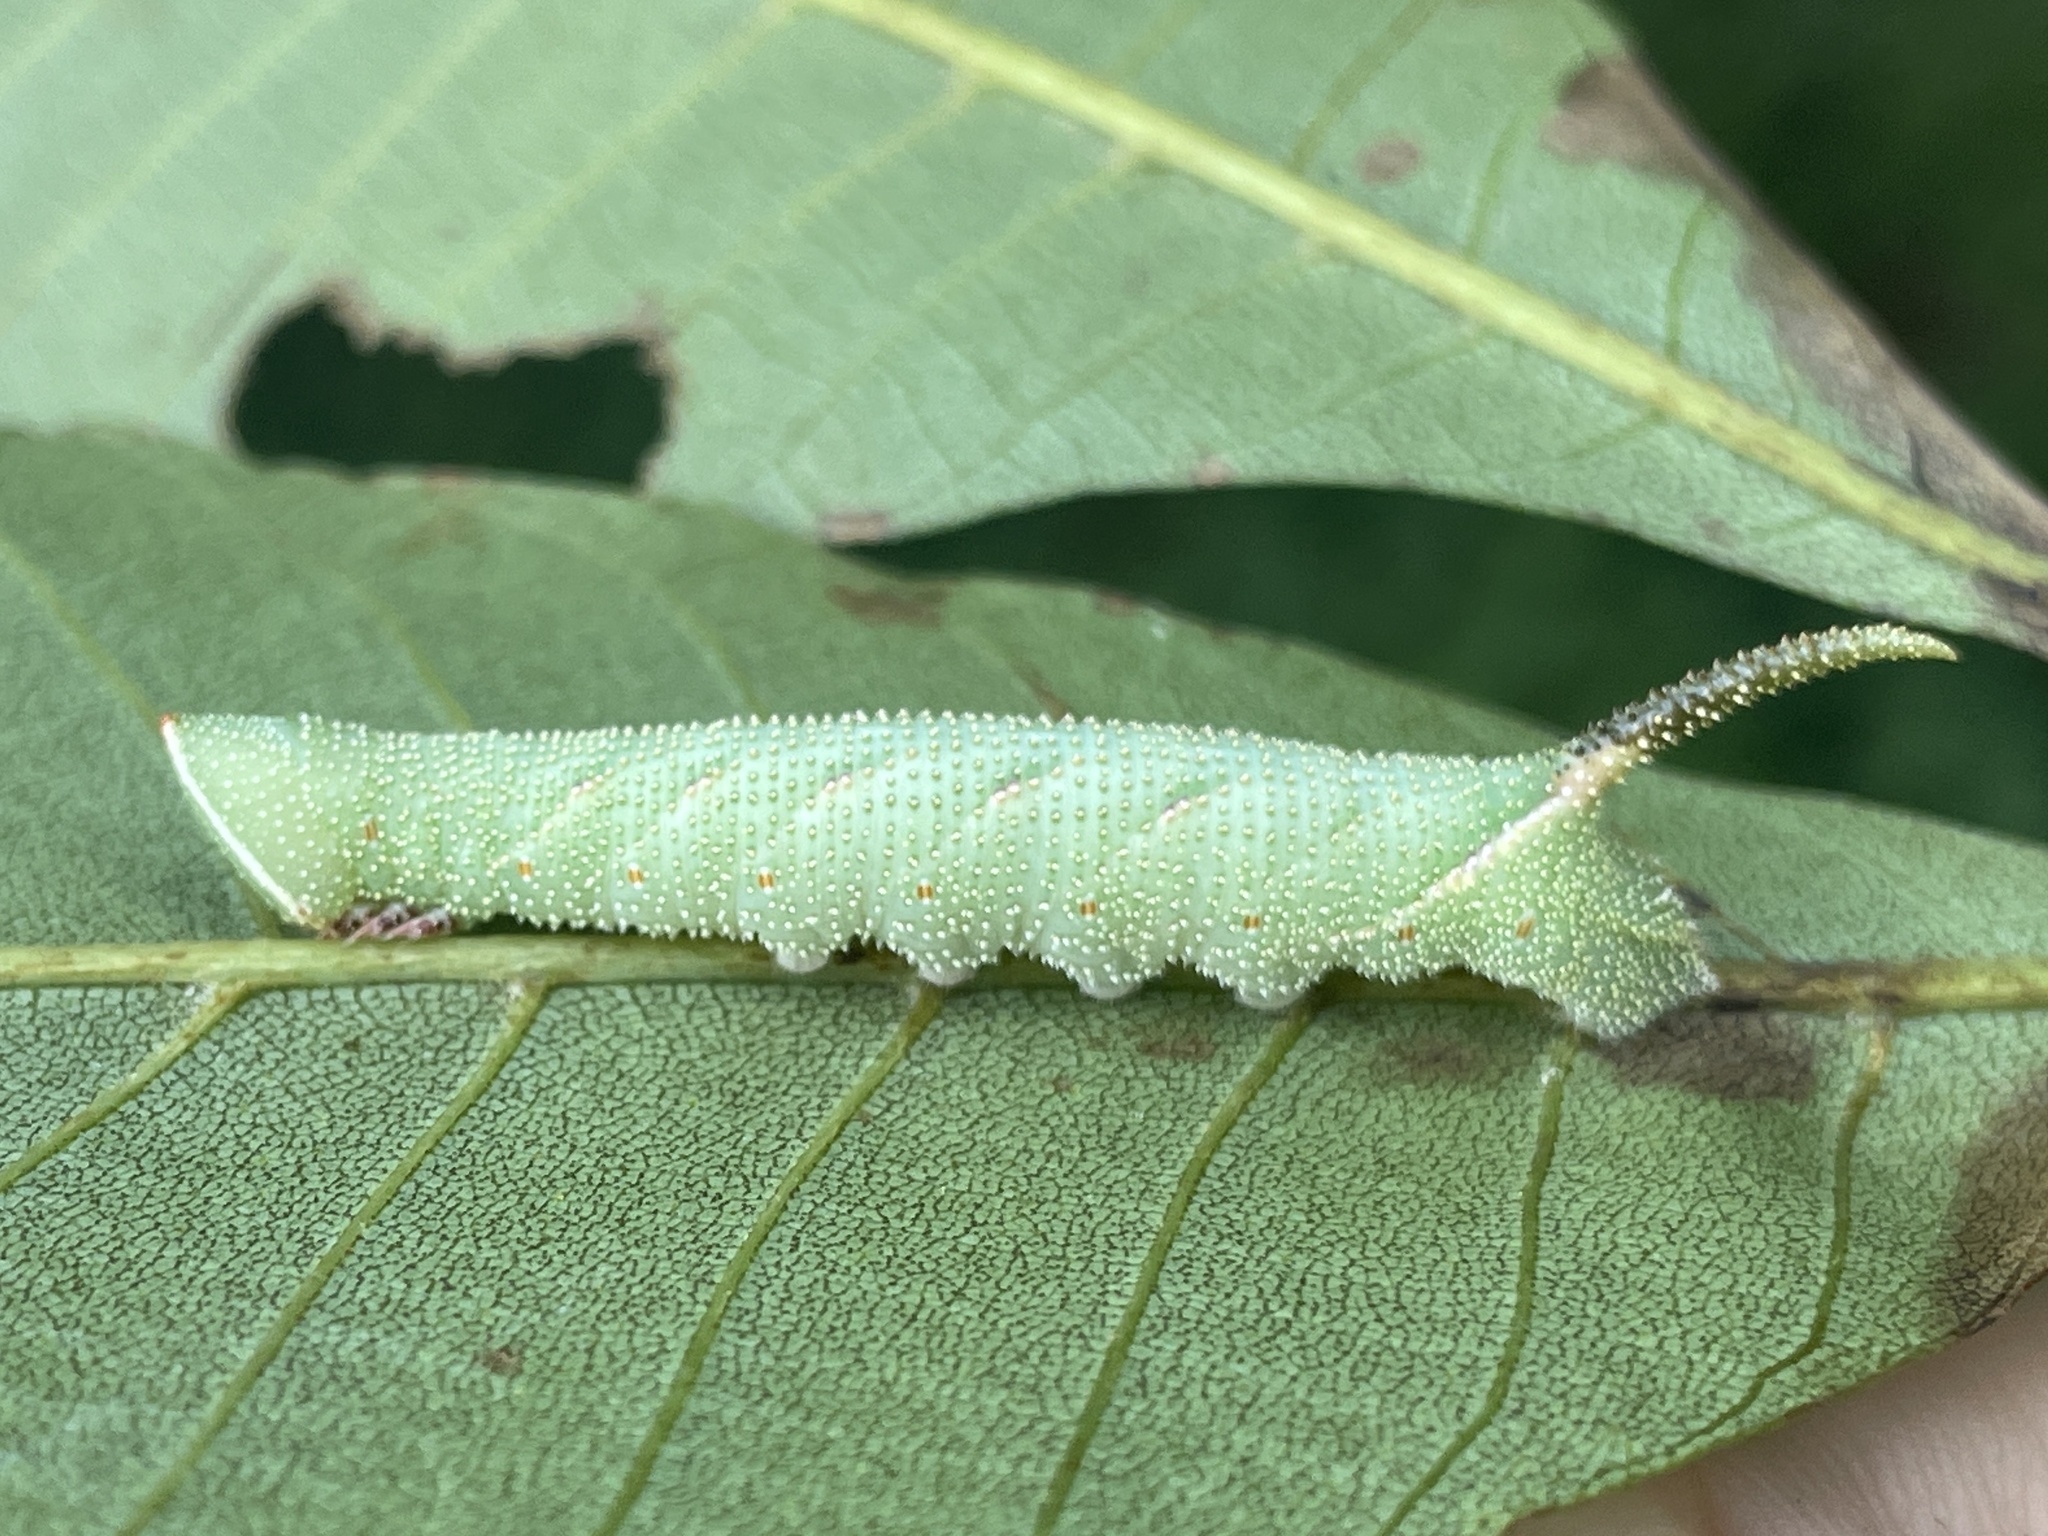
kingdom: Animalia
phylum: Arthropoda
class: Insecta
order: Lepidoptera
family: Sphingidae
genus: Amorpha
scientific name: Amorpha juglandis
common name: Walnut sphinx
